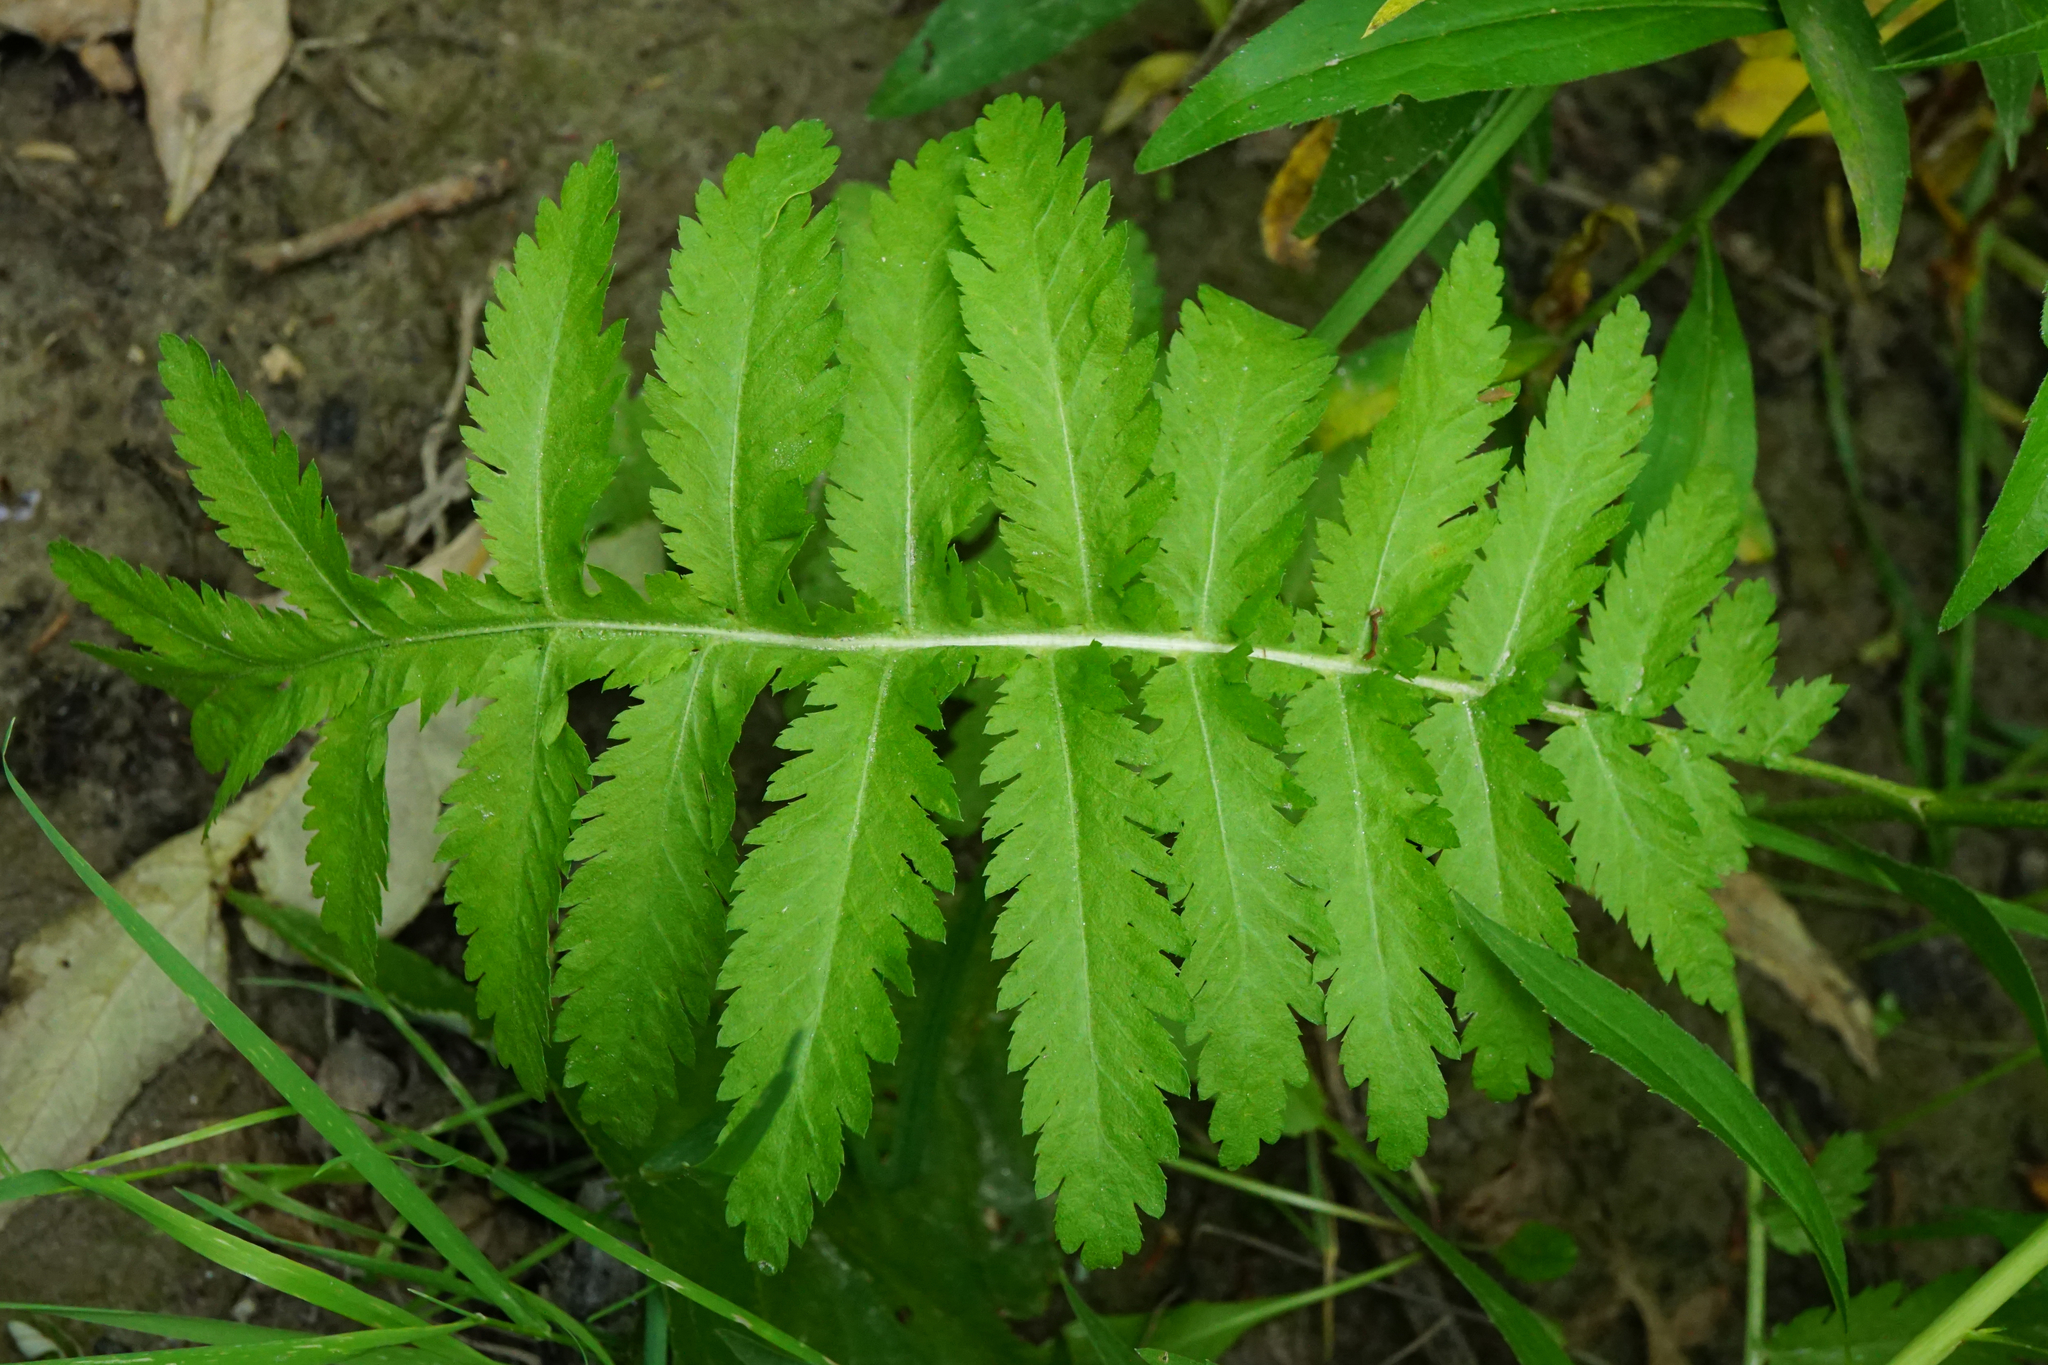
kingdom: Plantae
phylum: Tracheophyta
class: Magnoliopsida
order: Asterales
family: Asteraceae
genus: Tanacetum
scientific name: Tanacetum vulgare
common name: Common tansy
